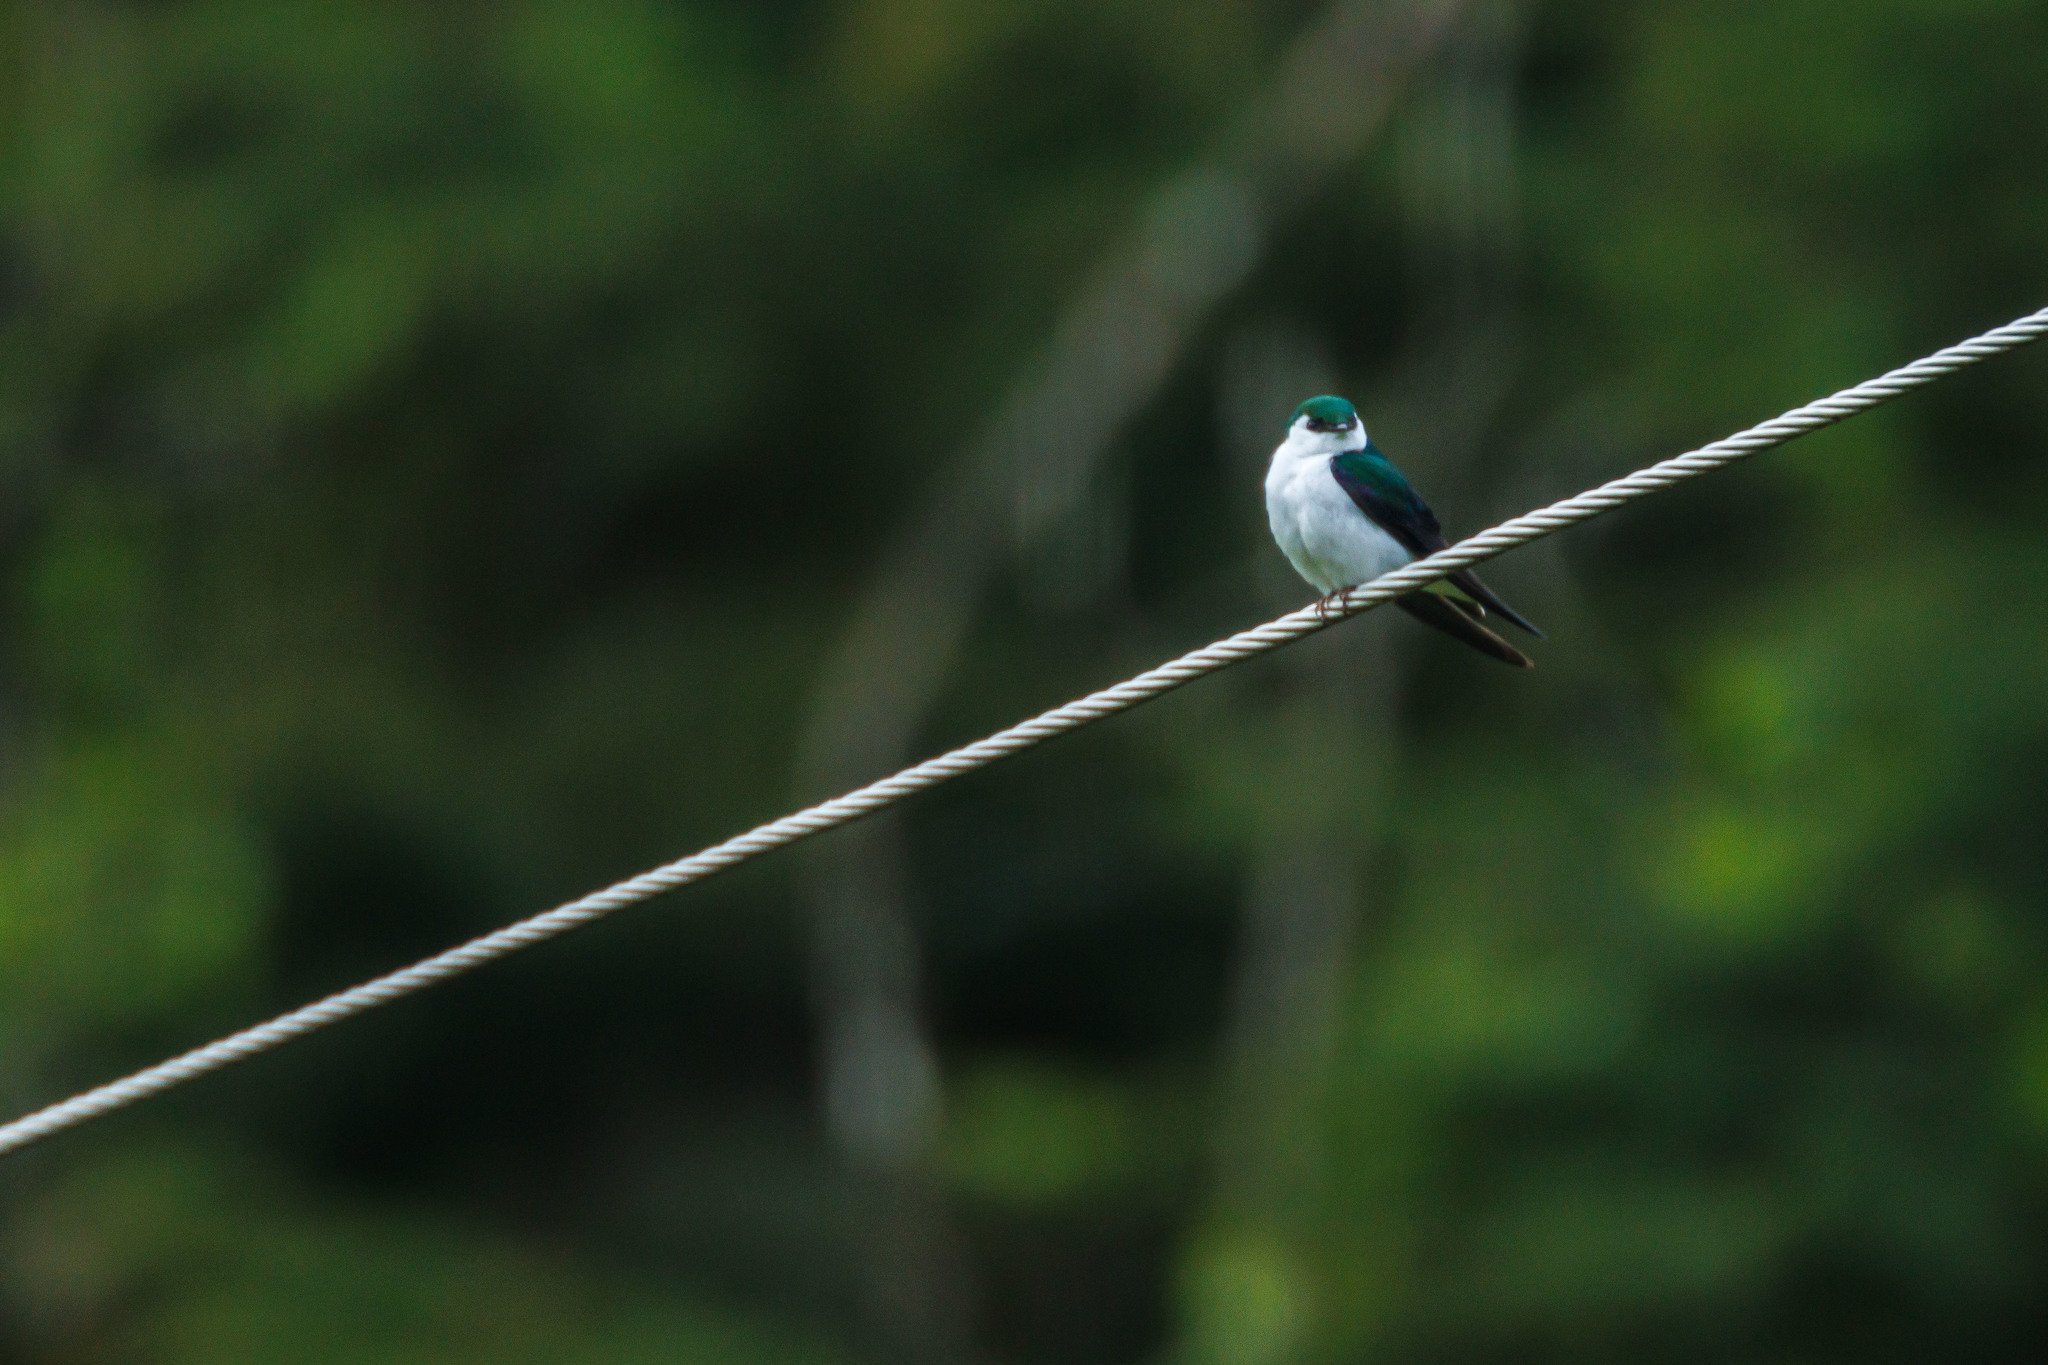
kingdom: Animalia
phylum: Chordata
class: Aves
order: Passeriformes
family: Hirundinidae
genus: Tachycineta
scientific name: Tachycineta thalassina
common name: Violet-green swallow
